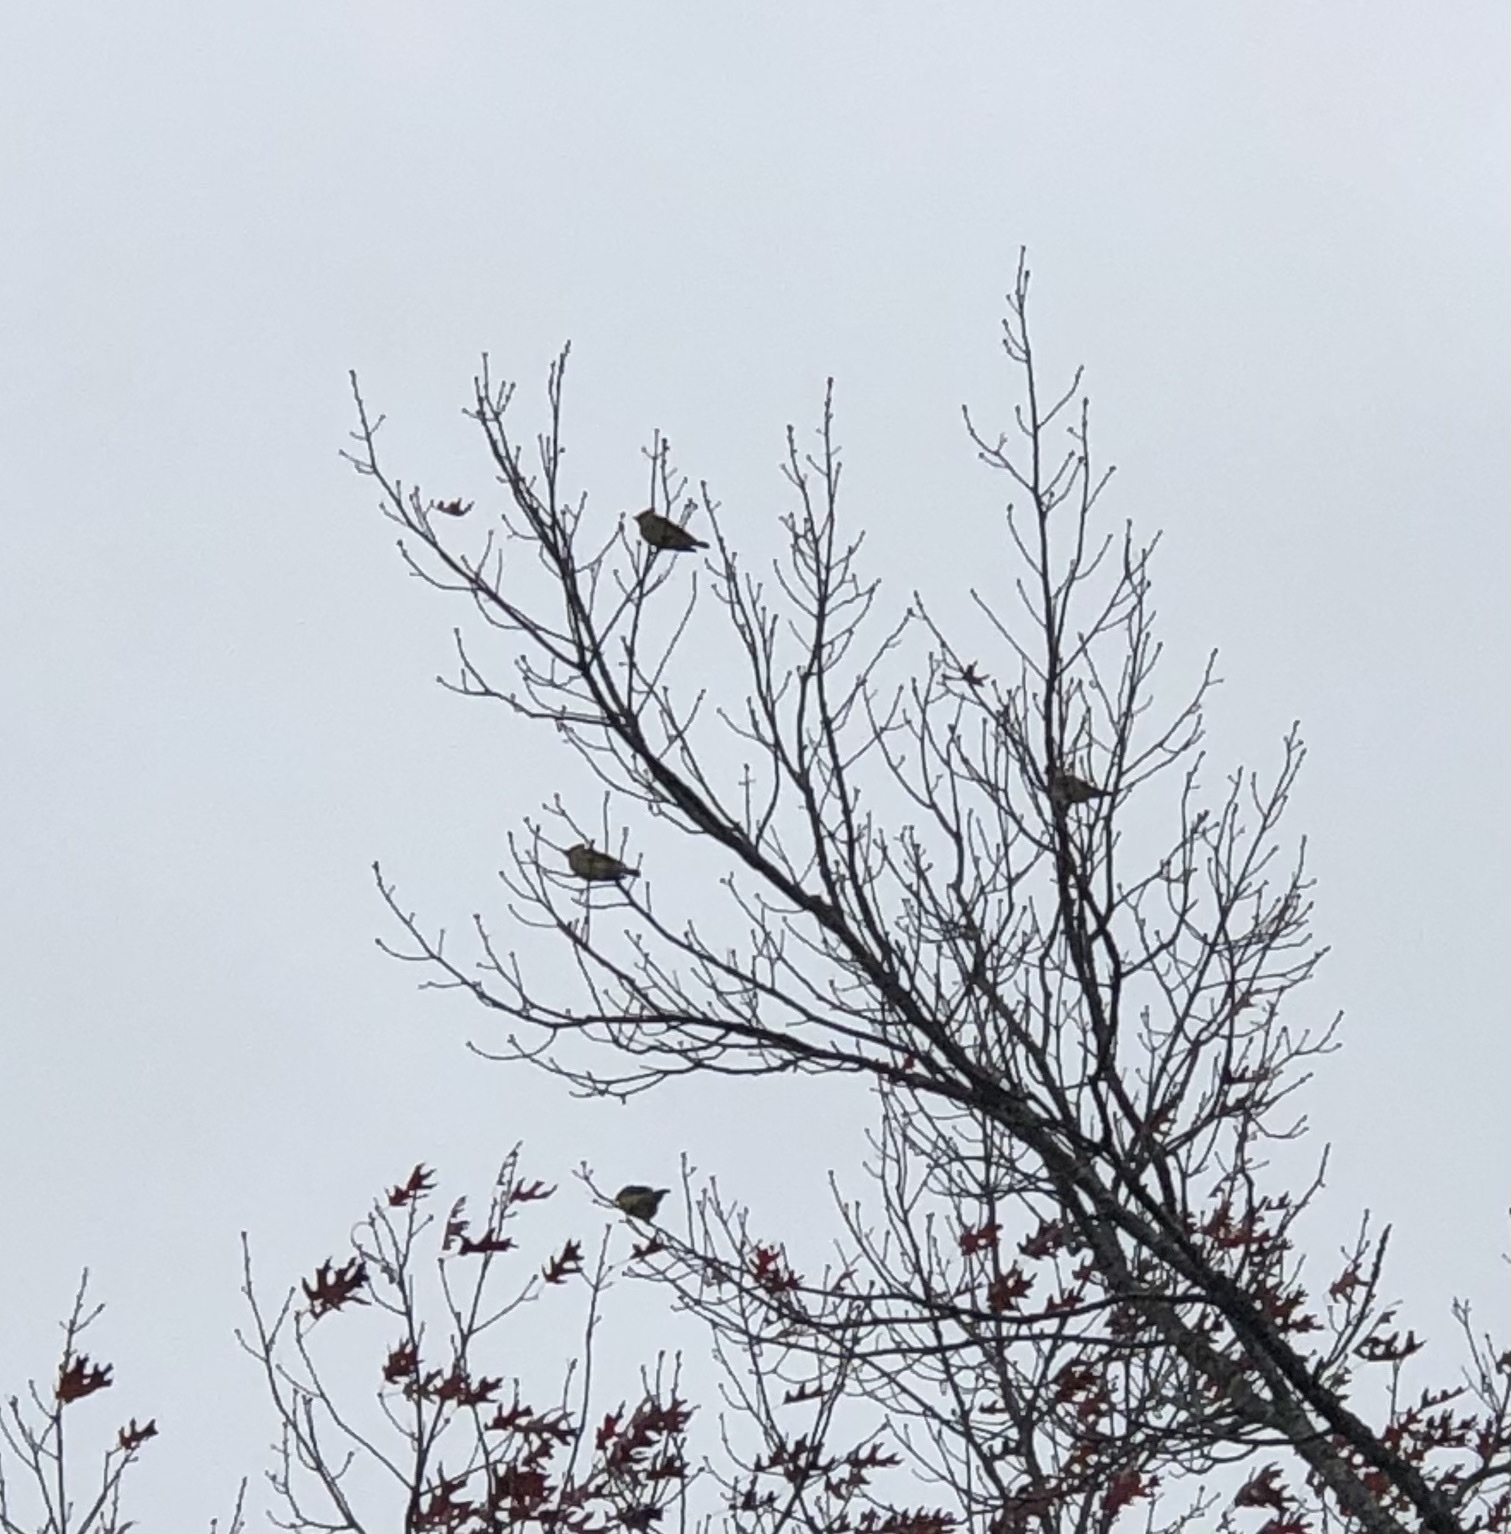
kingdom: Animalia
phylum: Chordata
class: Aves
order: Passeriformes
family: Bombycillidae
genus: Bombycilla
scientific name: Bombycilla cedrorum
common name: Cedar waxwing
